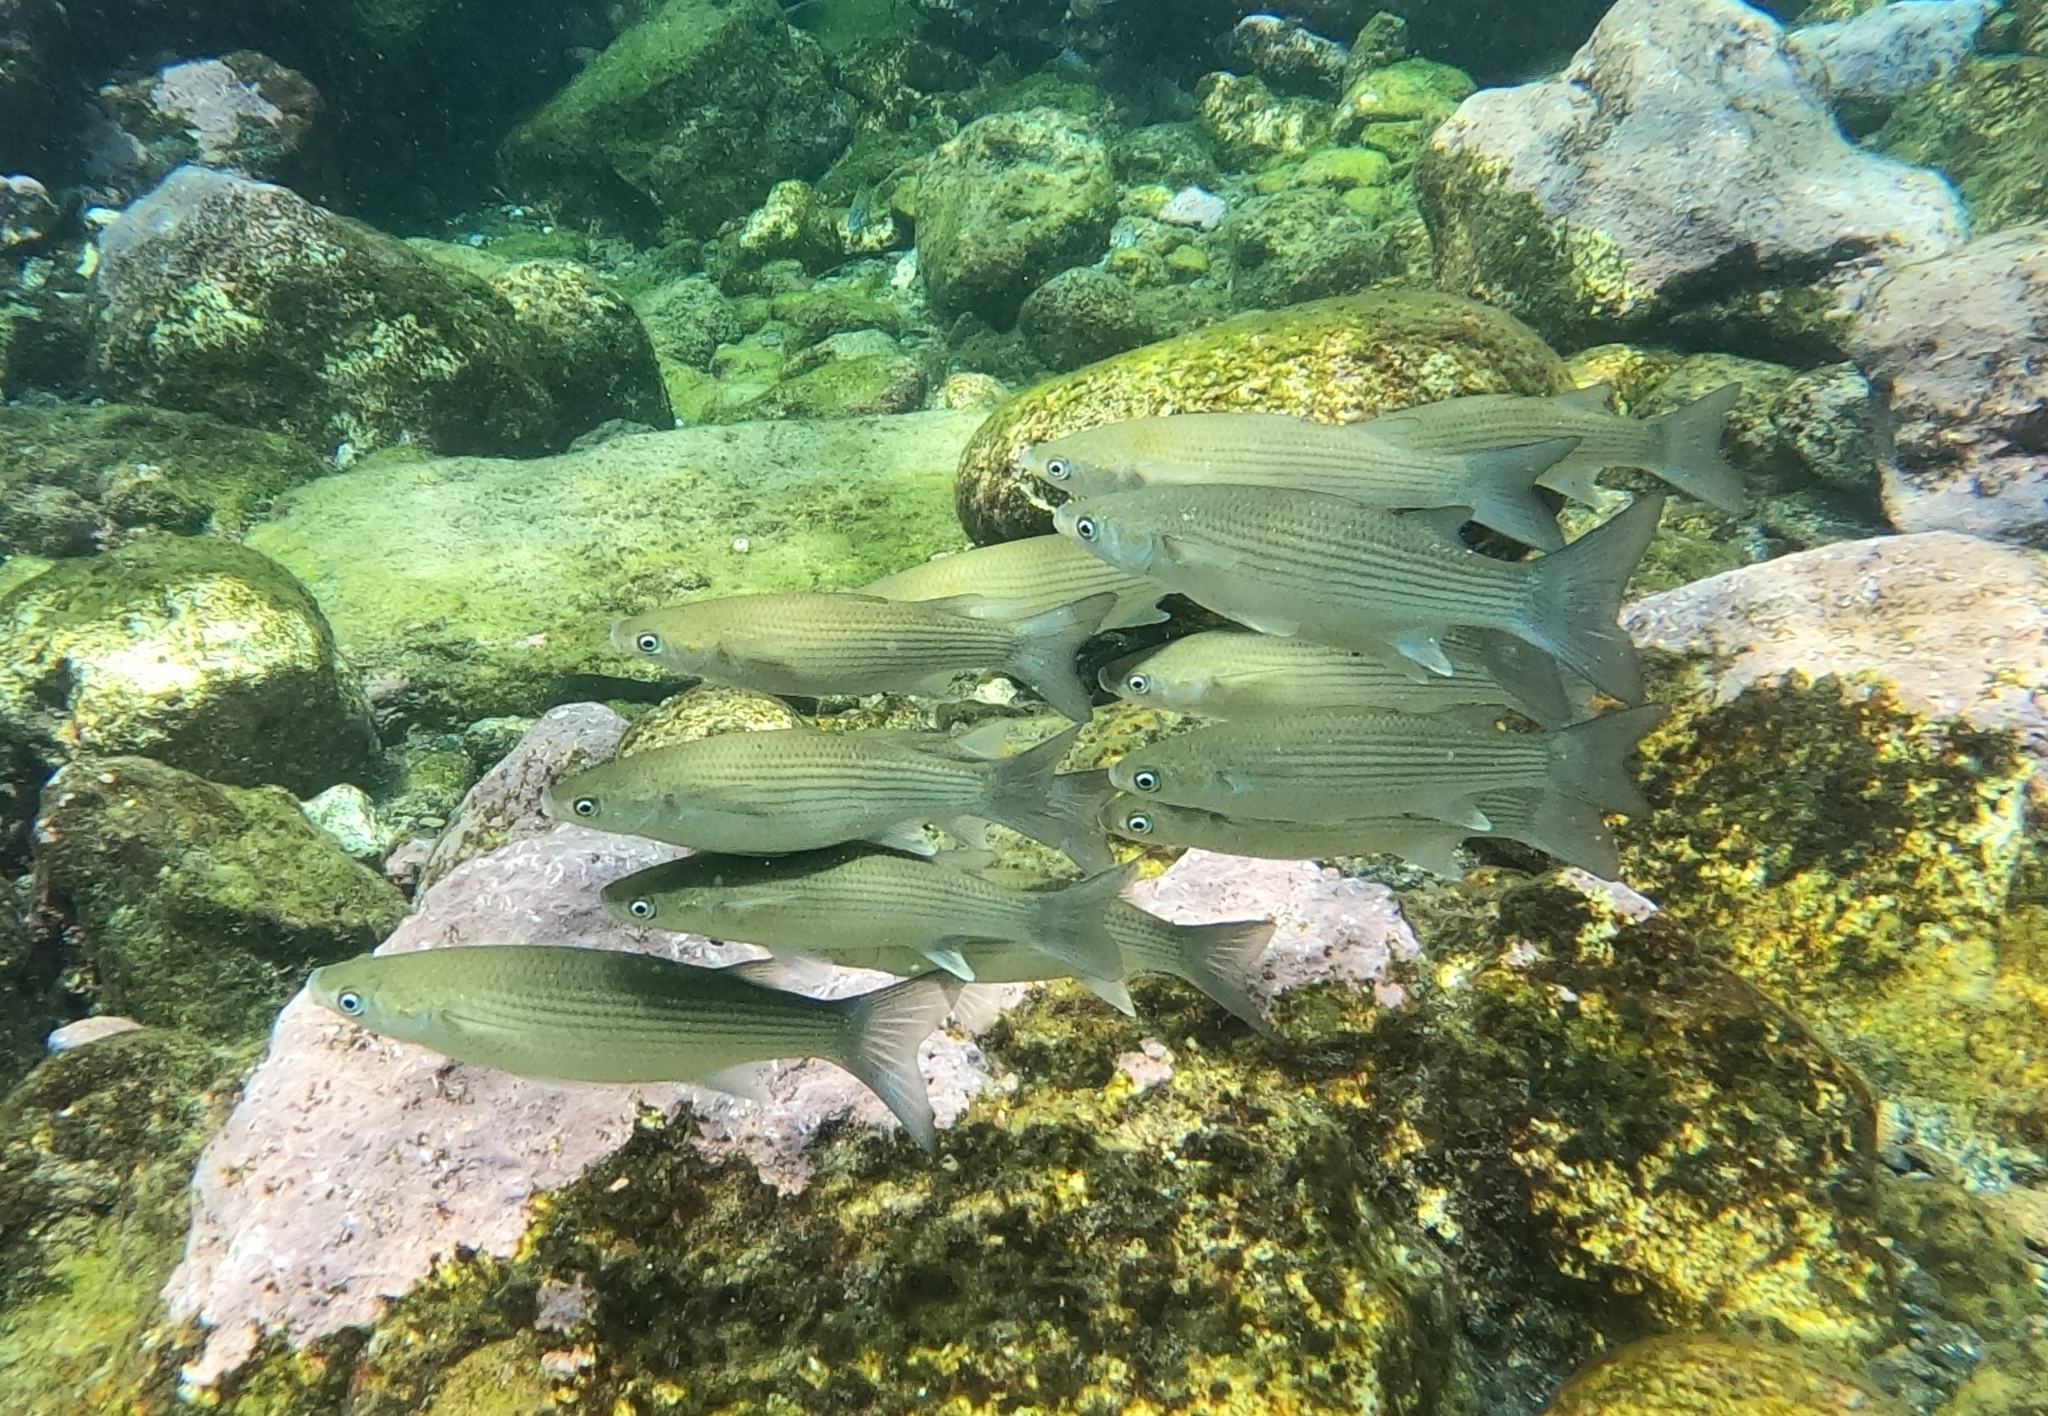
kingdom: Animalia
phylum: Chordata
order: Mugiliformes
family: Mugilidae
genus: Chelon
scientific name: Chelon labrosus
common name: Thick-lipped mullet
